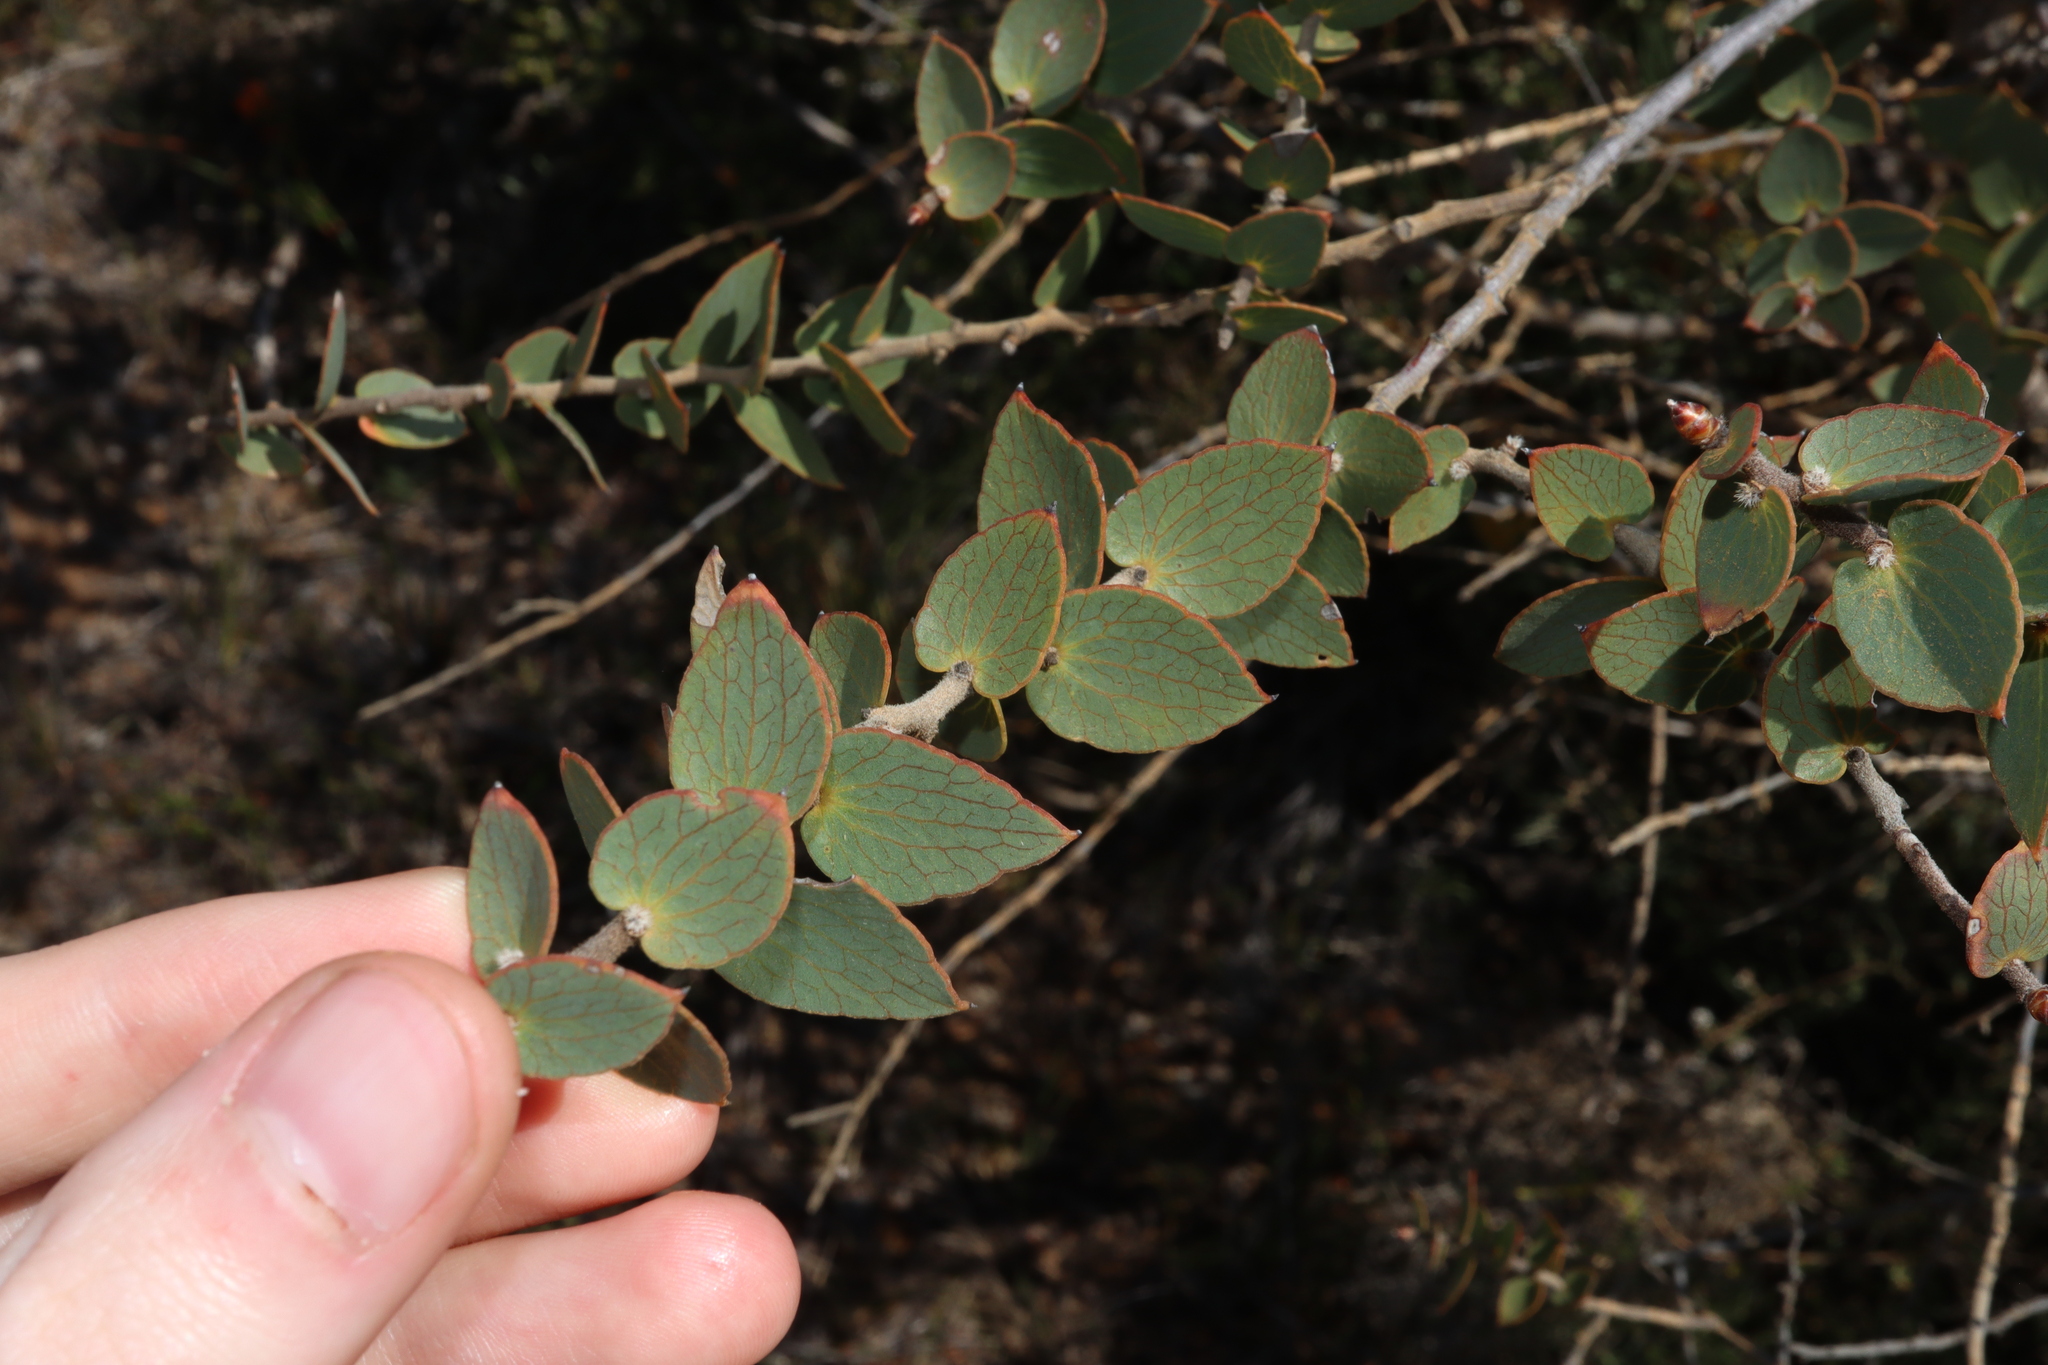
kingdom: Plantae
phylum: Tracheophyta
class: Magnoliopsida
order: Proteales
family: Proteaceae
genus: Hakea
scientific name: Hakea ferruginea
